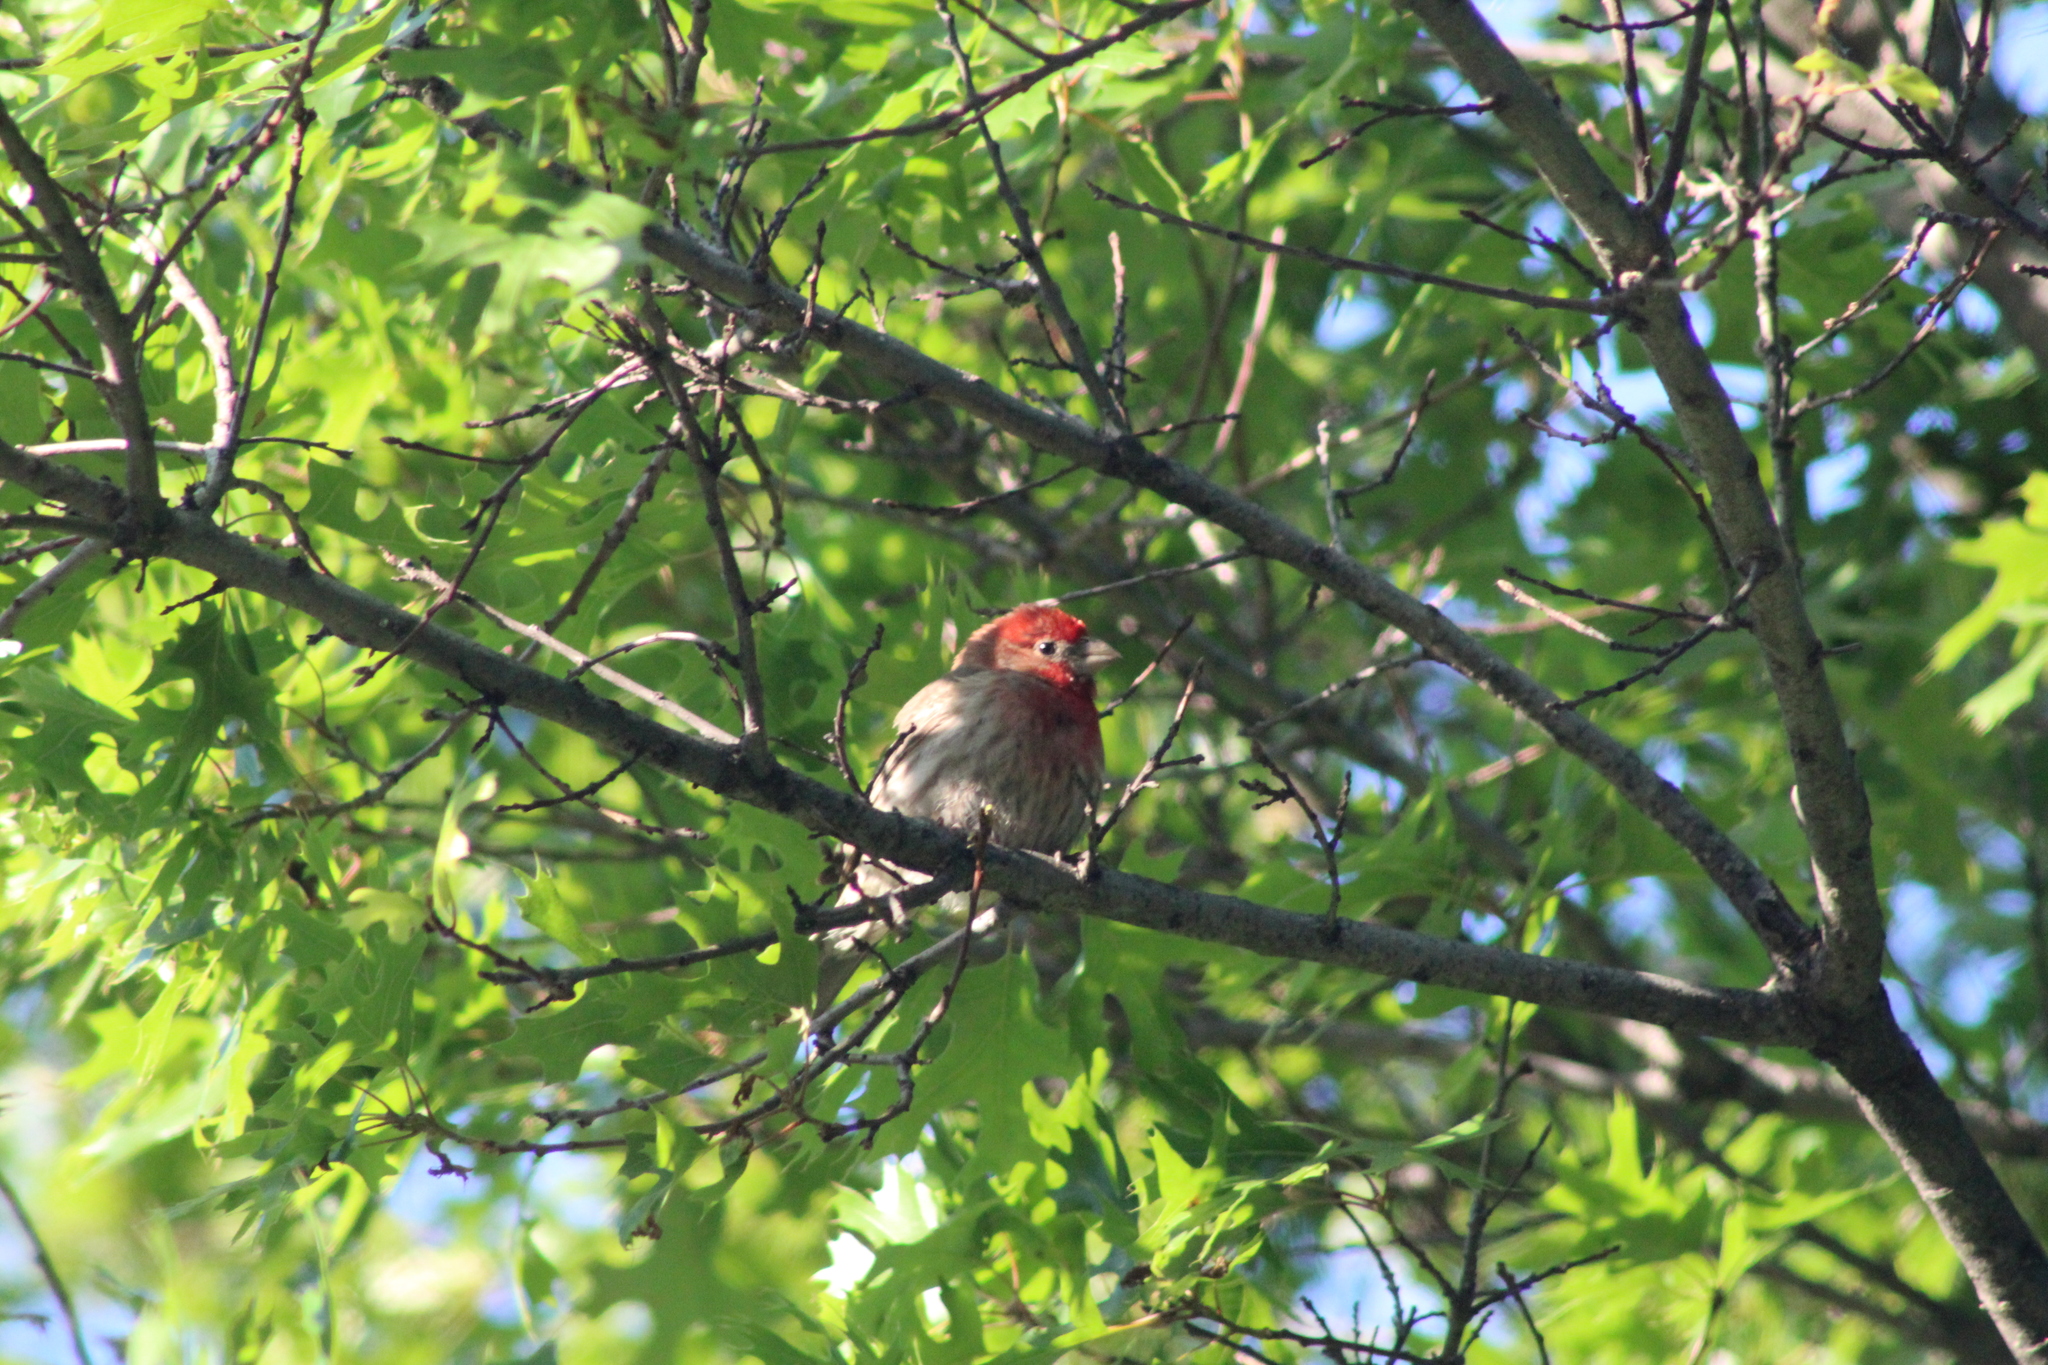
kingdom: Animalia
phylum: Chordata
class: Aves
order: Passeriformes
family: Fringillidae
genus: Haemorhous
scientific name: Haemorhous mexicanus
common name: House finch
